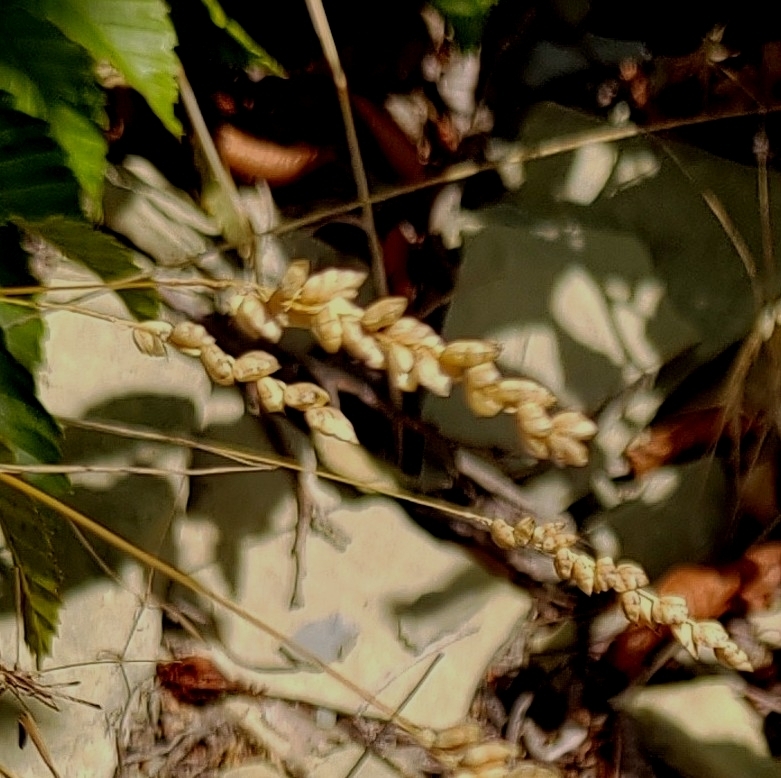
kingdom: Plantae
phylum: Tracheophyta
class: Liliopsida
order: Poales
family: Poaceae
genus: Briza
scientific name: Briza humilis
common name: Spiked quaking grass
